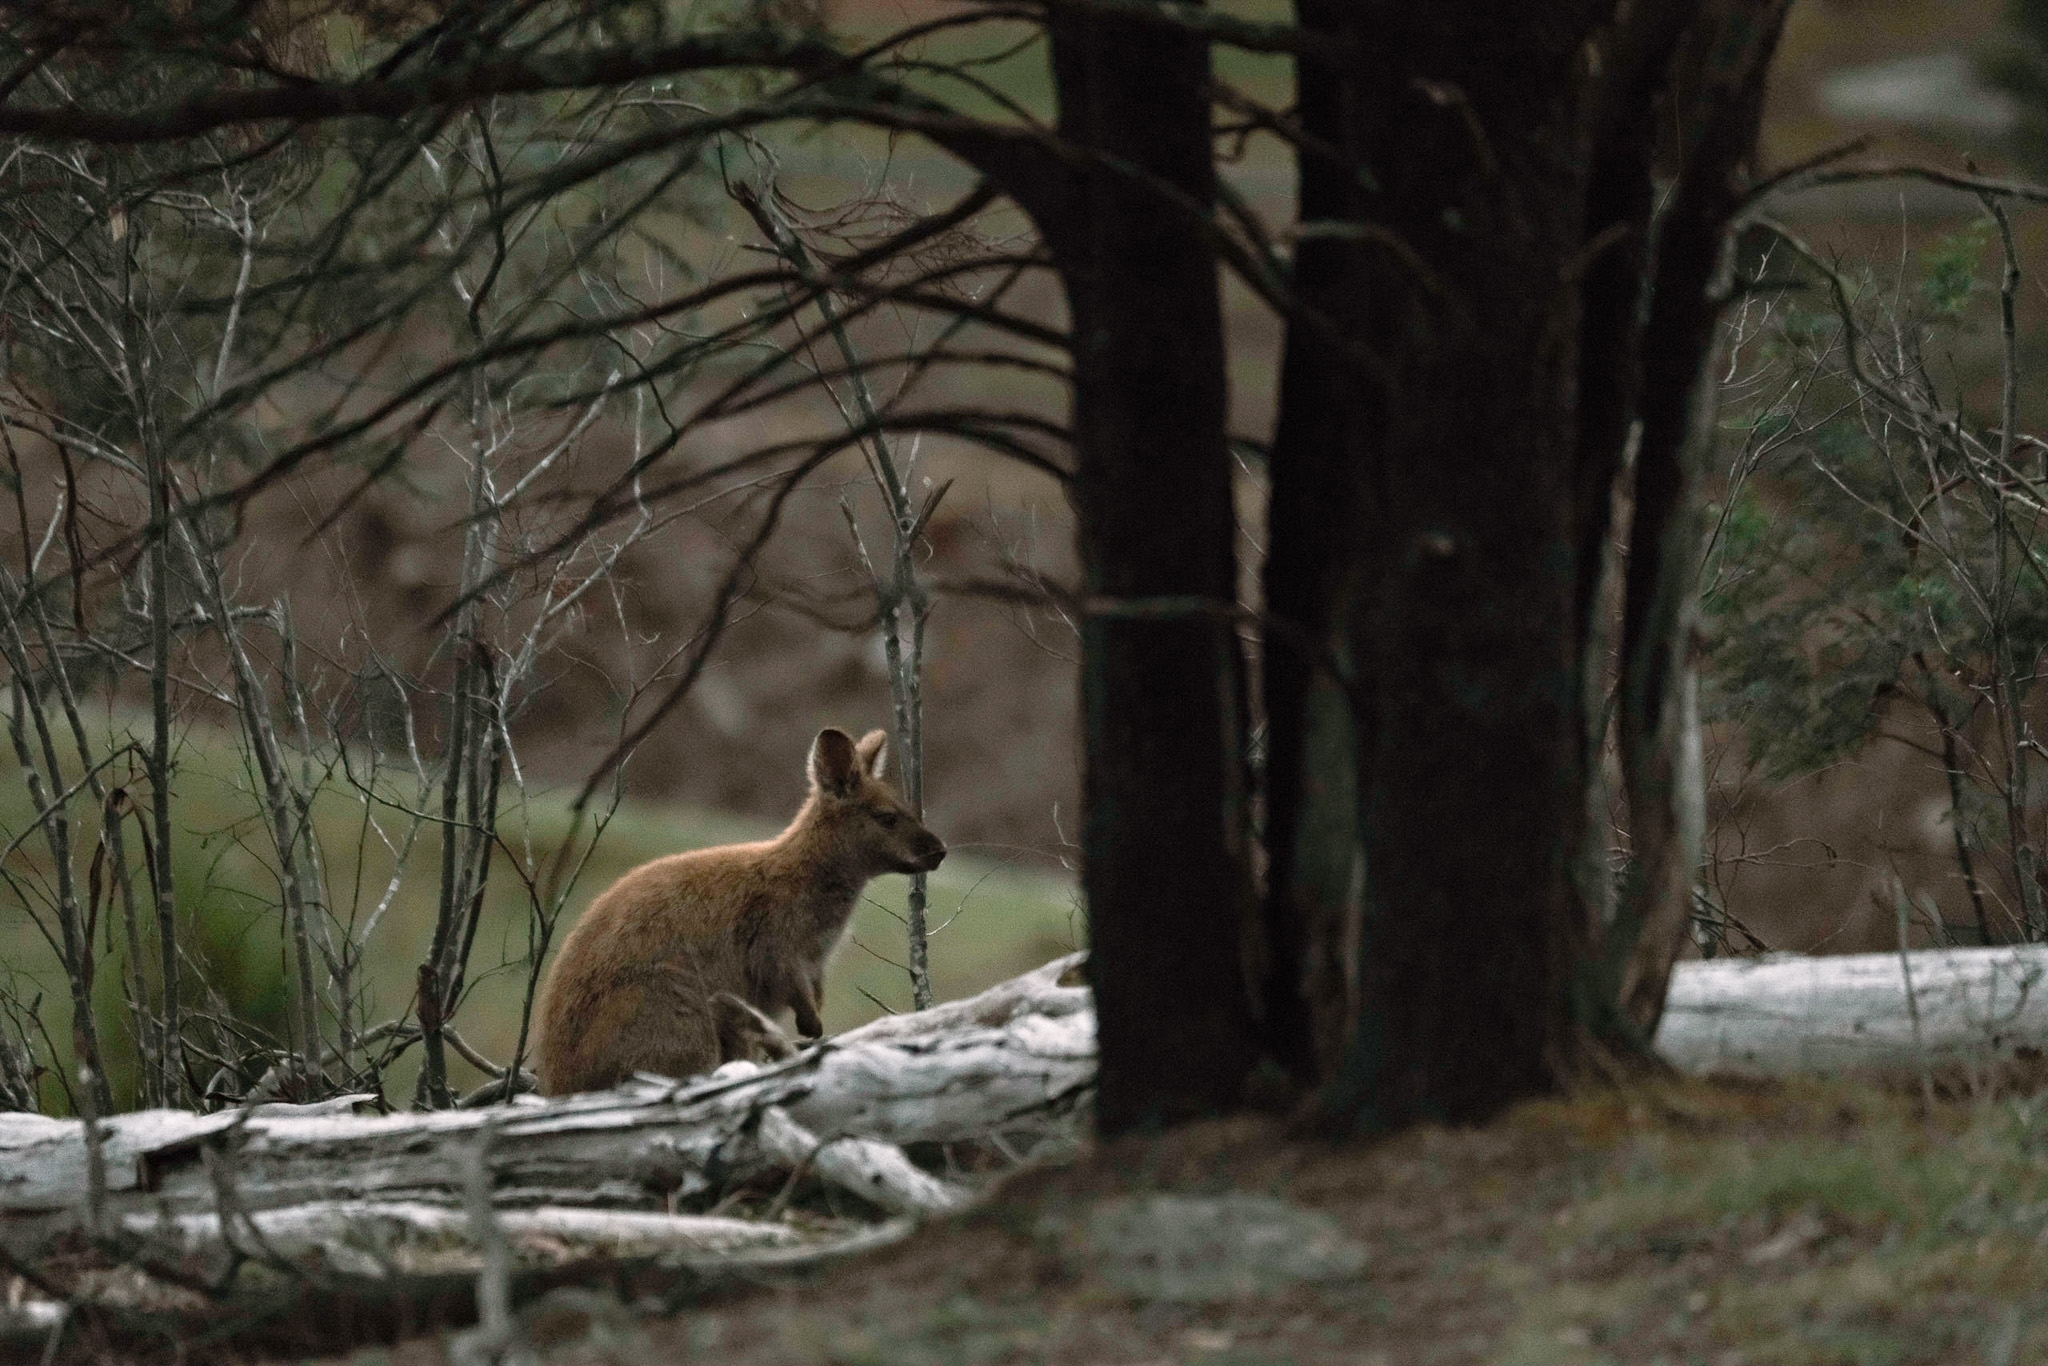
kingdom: Animalia
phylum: Chordata
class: Mammalia
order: Diprotodontia
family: Macropodidae
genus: Notamacropus
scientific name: Notamacropus rufogriseus
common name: Red-necked wallaby
